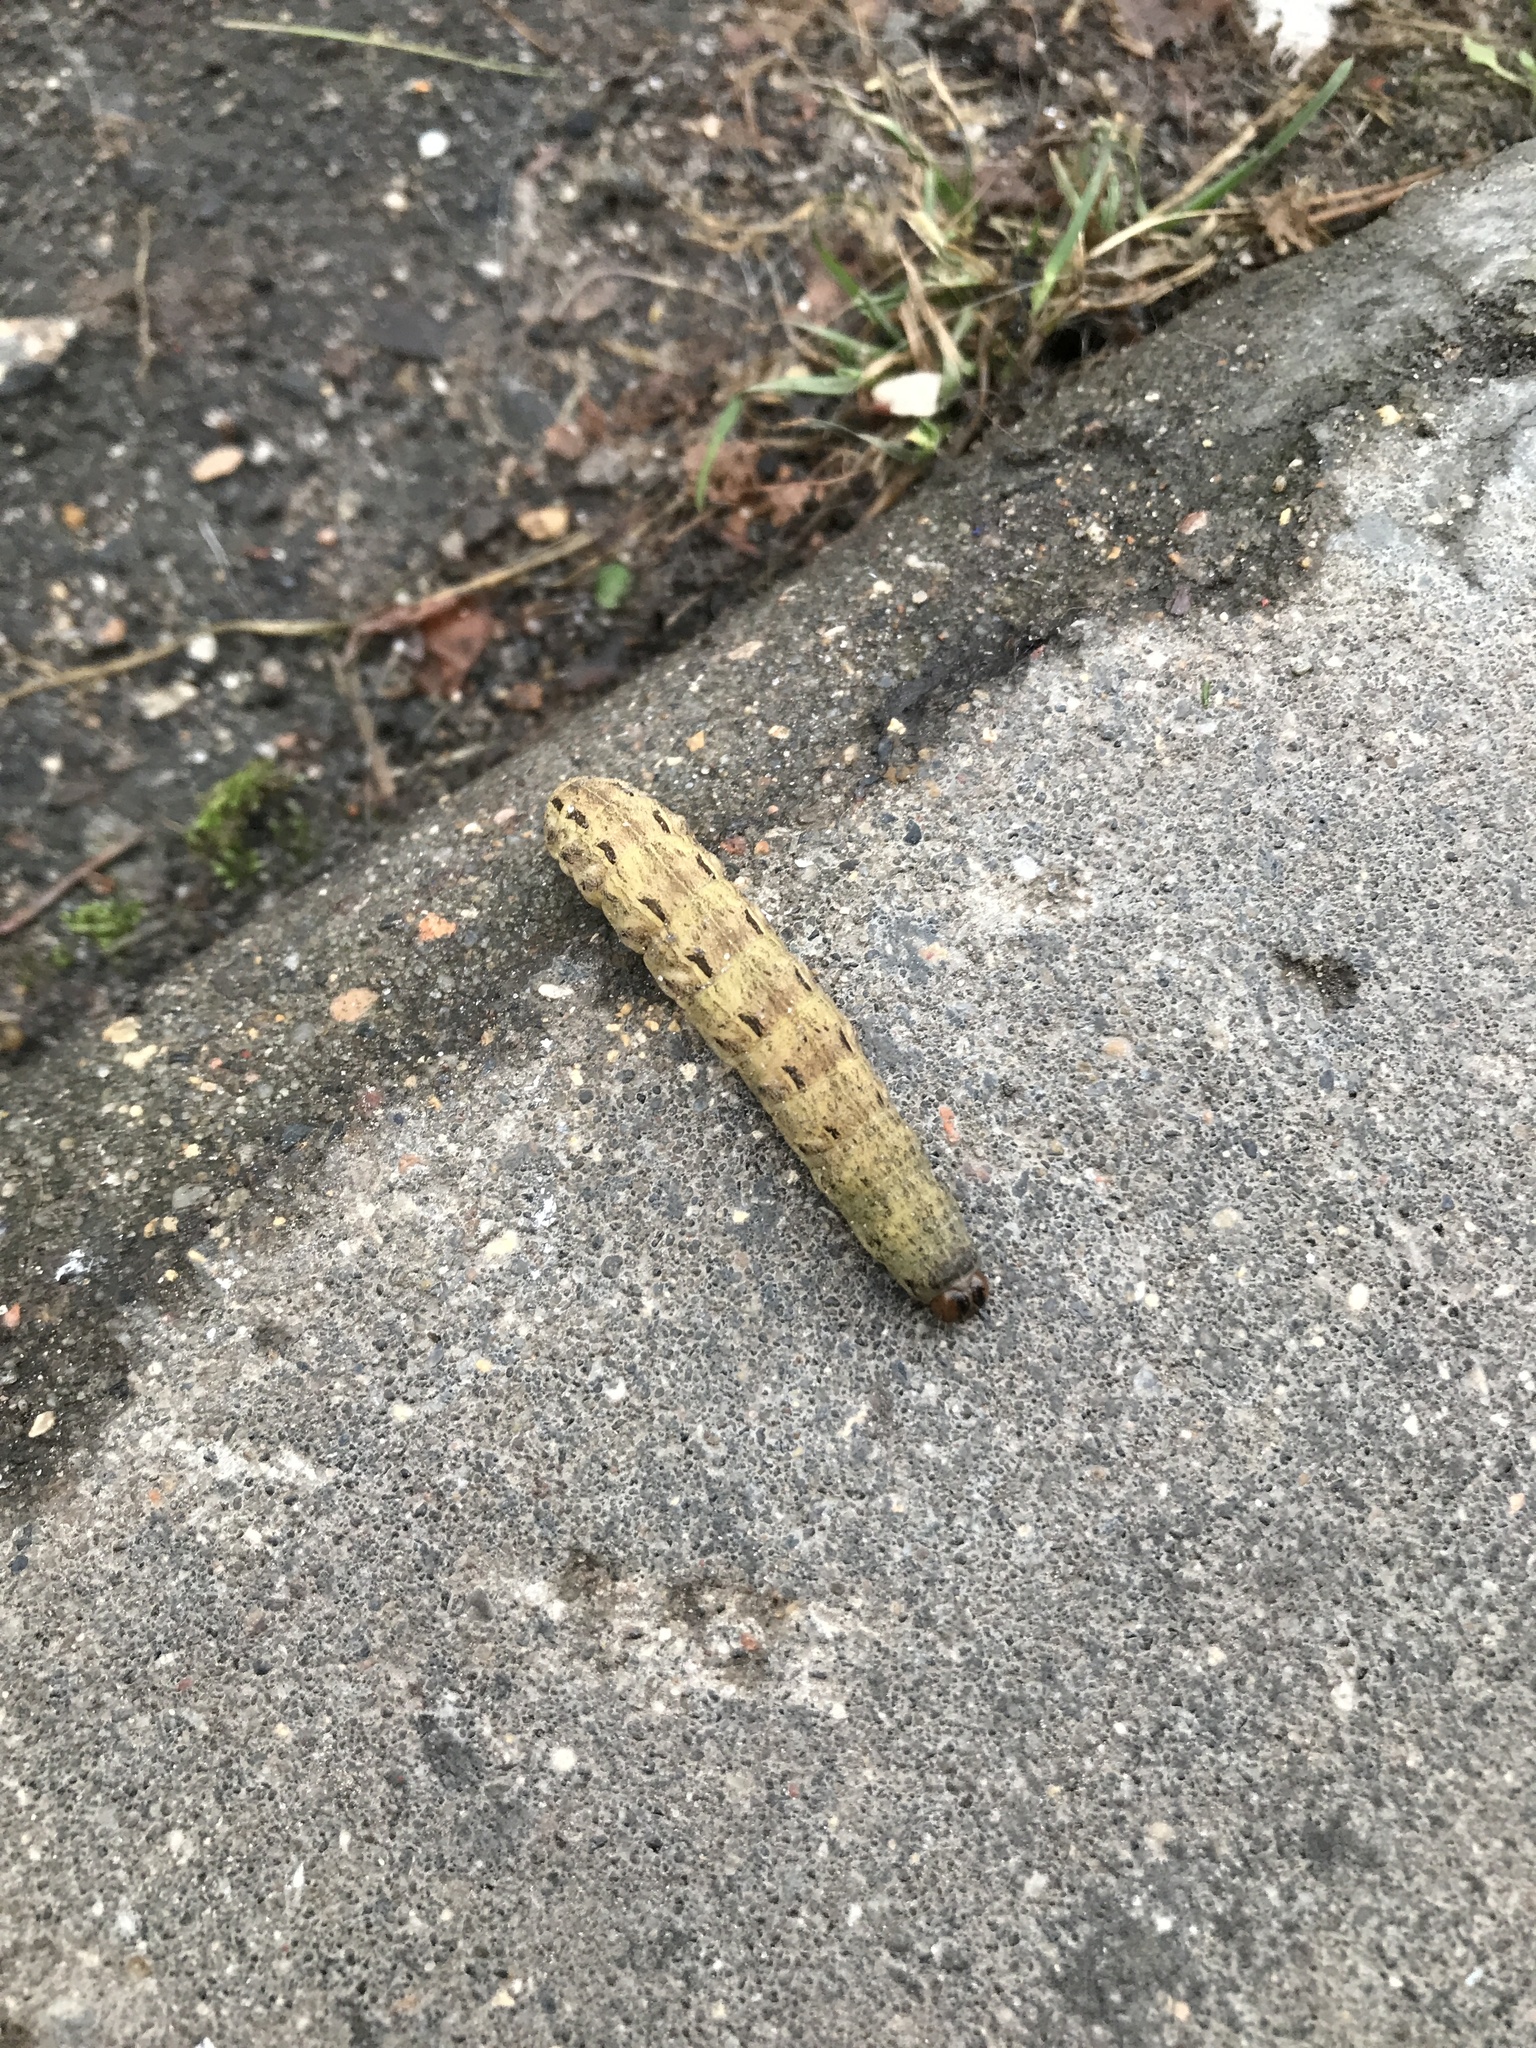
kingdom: Animalia
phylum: Arthropoda
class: Insecta
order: Lepidoptera
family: Noctuidae
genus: Noctua
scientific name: Noctua pronuba
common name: Large yellow underwing
